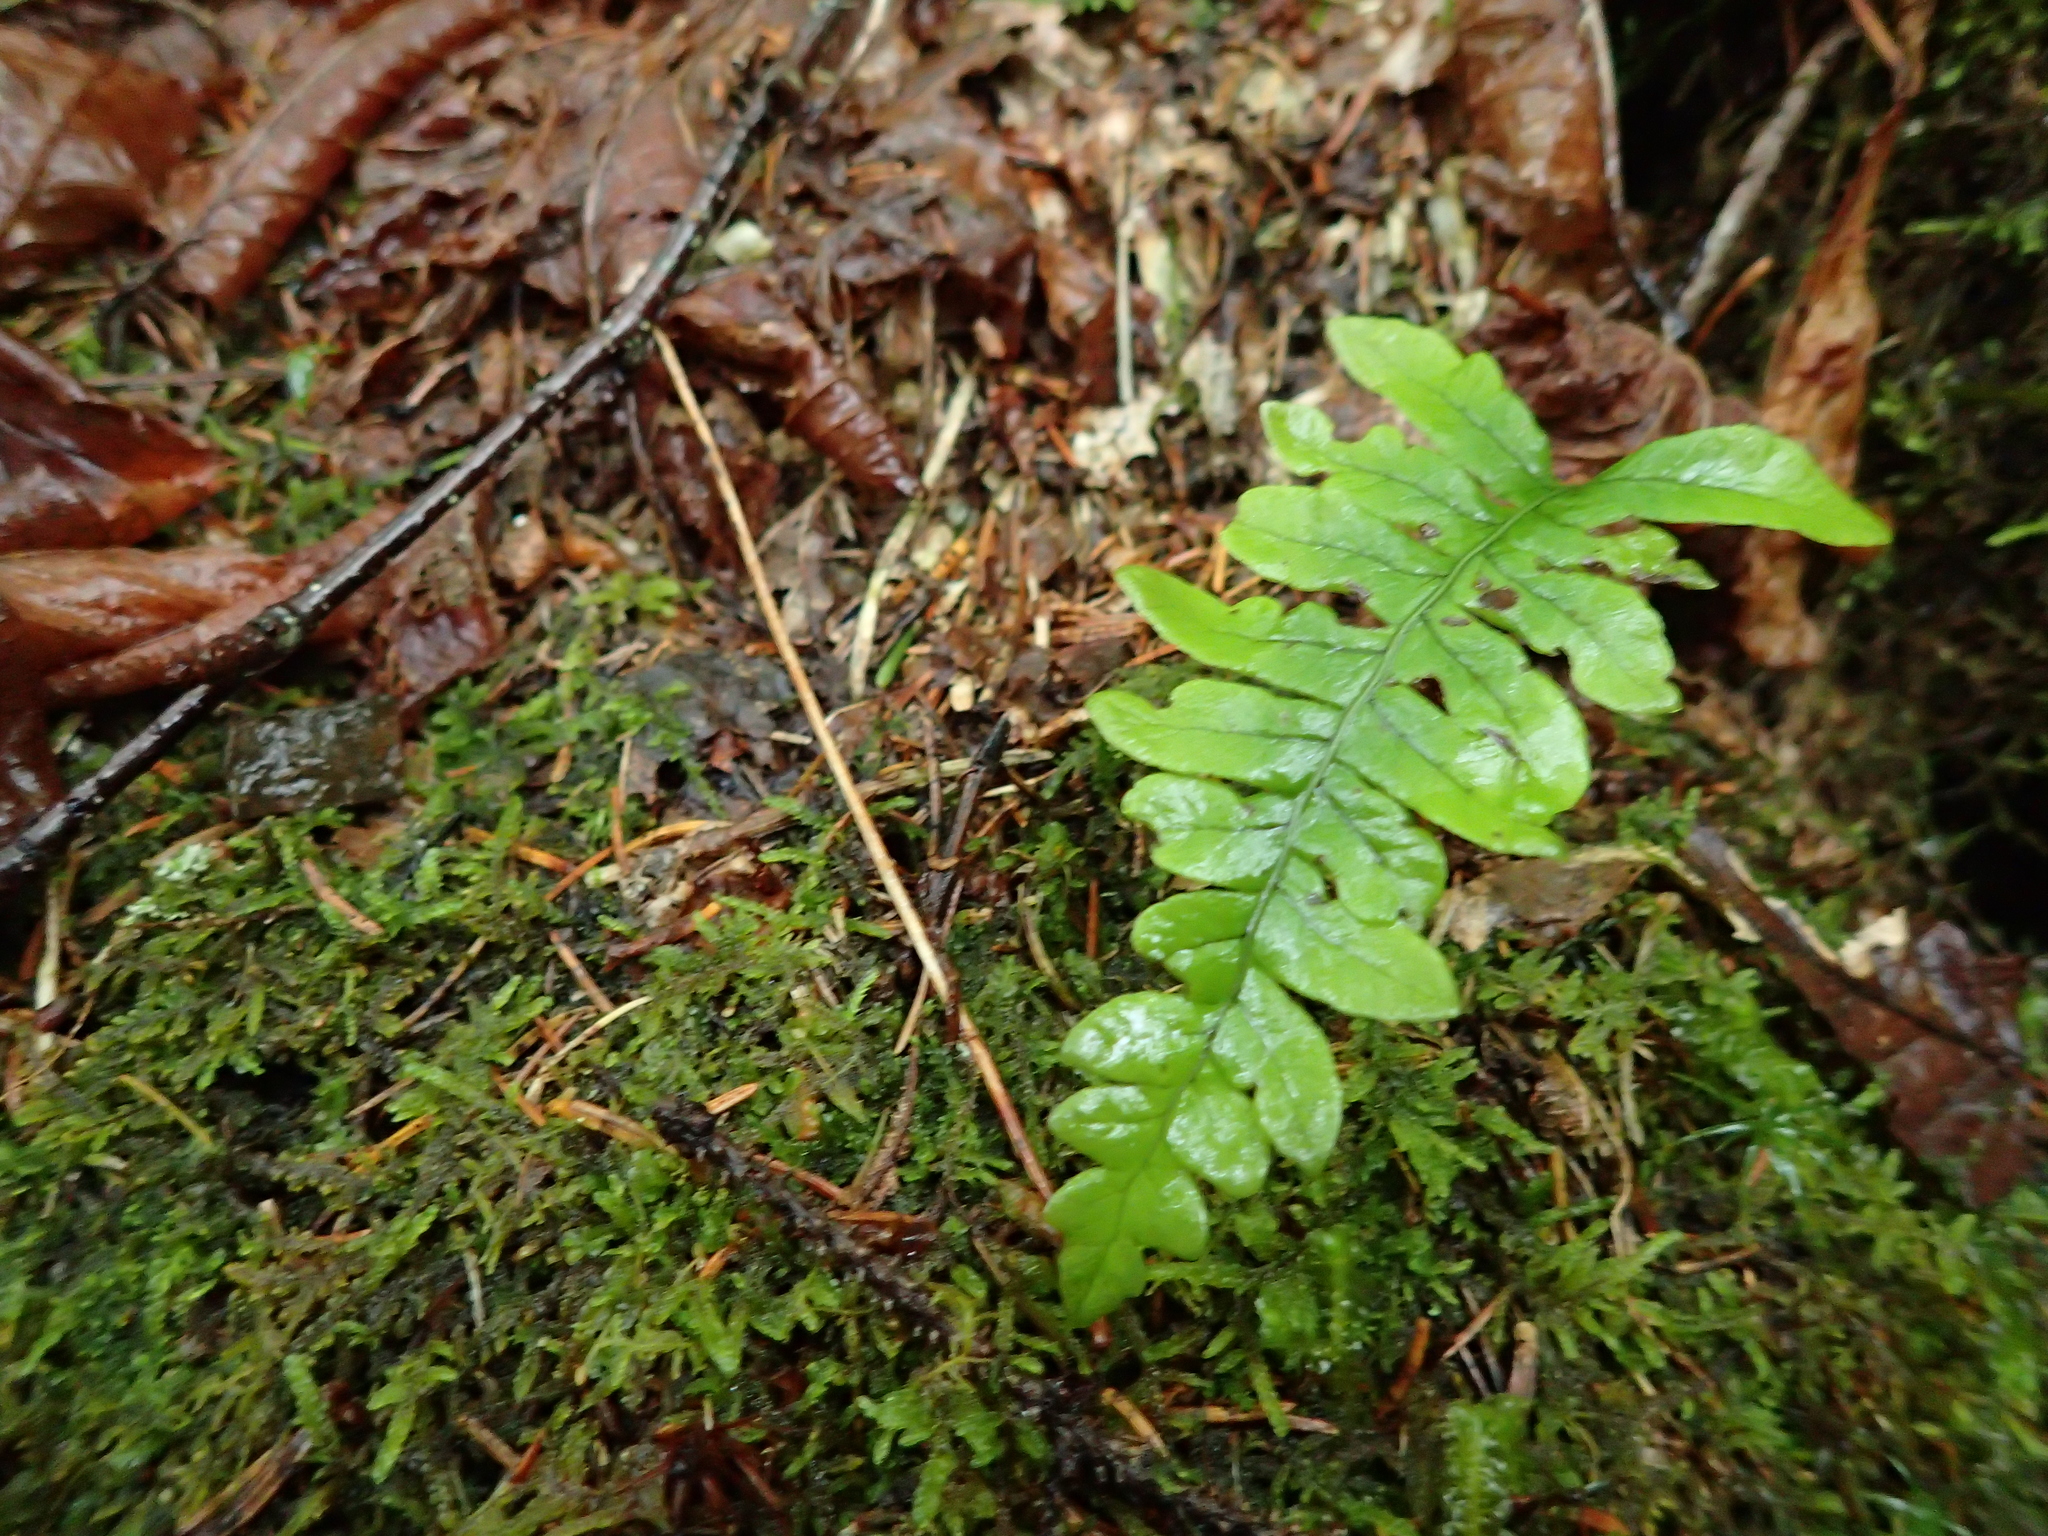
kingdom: Plantae
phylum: Tracheophyta
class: Polypodiopsida
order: Polypodiales
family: Polypodiaceae
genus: Polypodium
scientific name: Polypodium virginianum
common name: American wall fern
